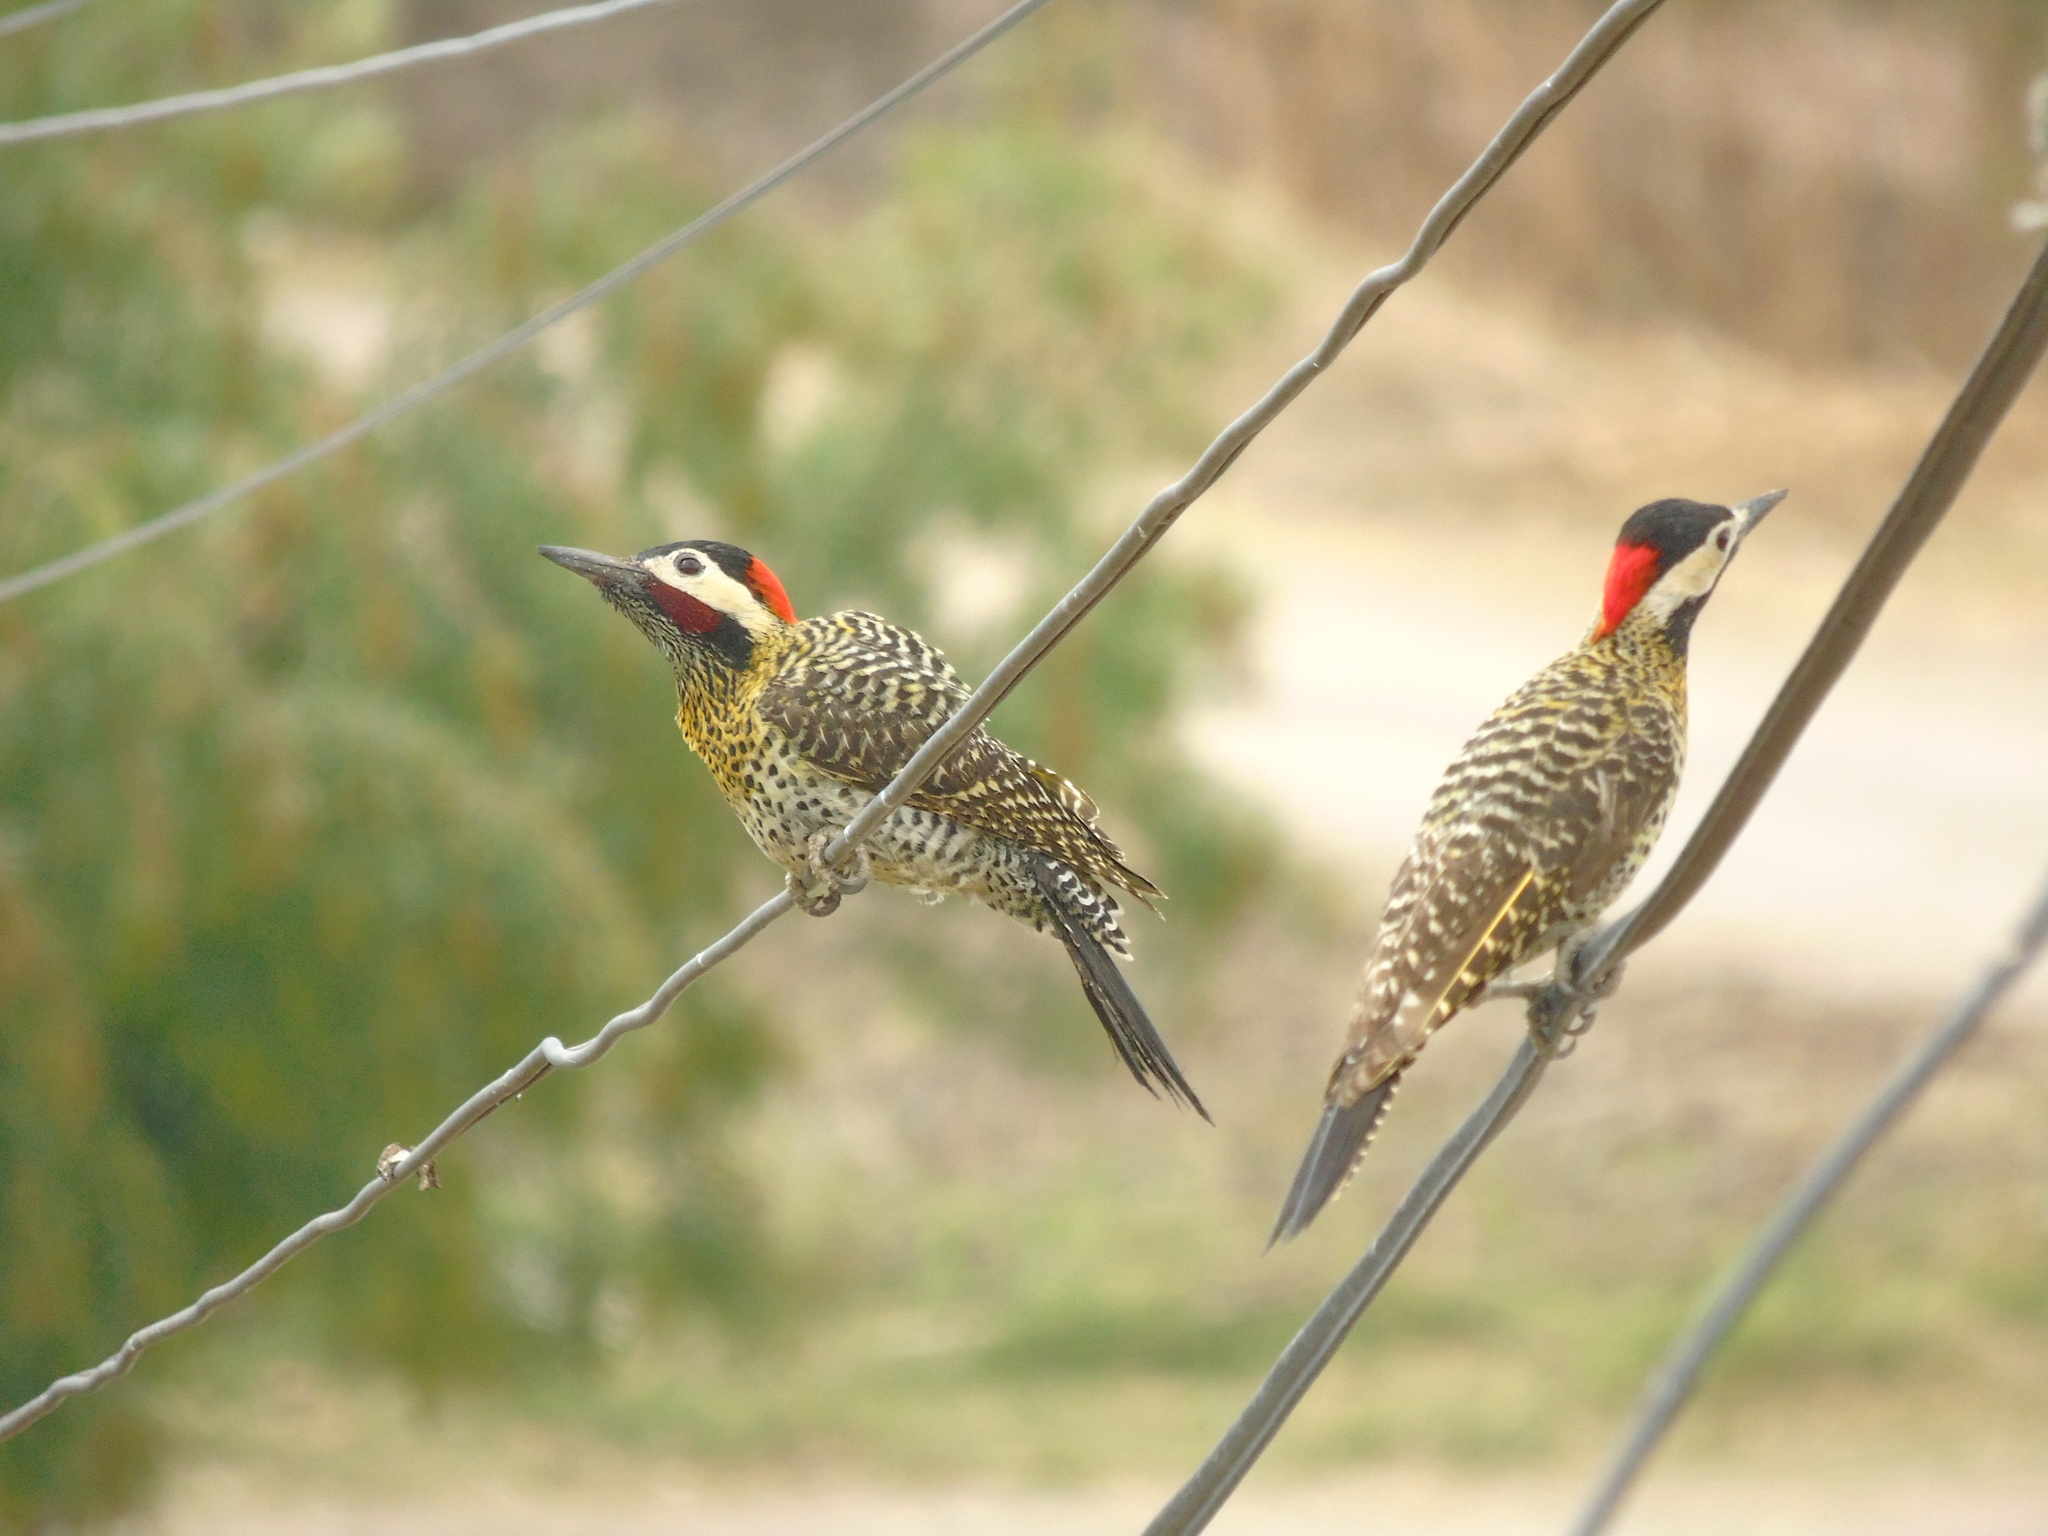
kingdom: Animalia
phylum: Chordata
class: Aves
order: Piciformes
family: Picidae
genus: Colaptes
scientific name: Colaptes melanochloros
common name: Green-barred woodpecker
